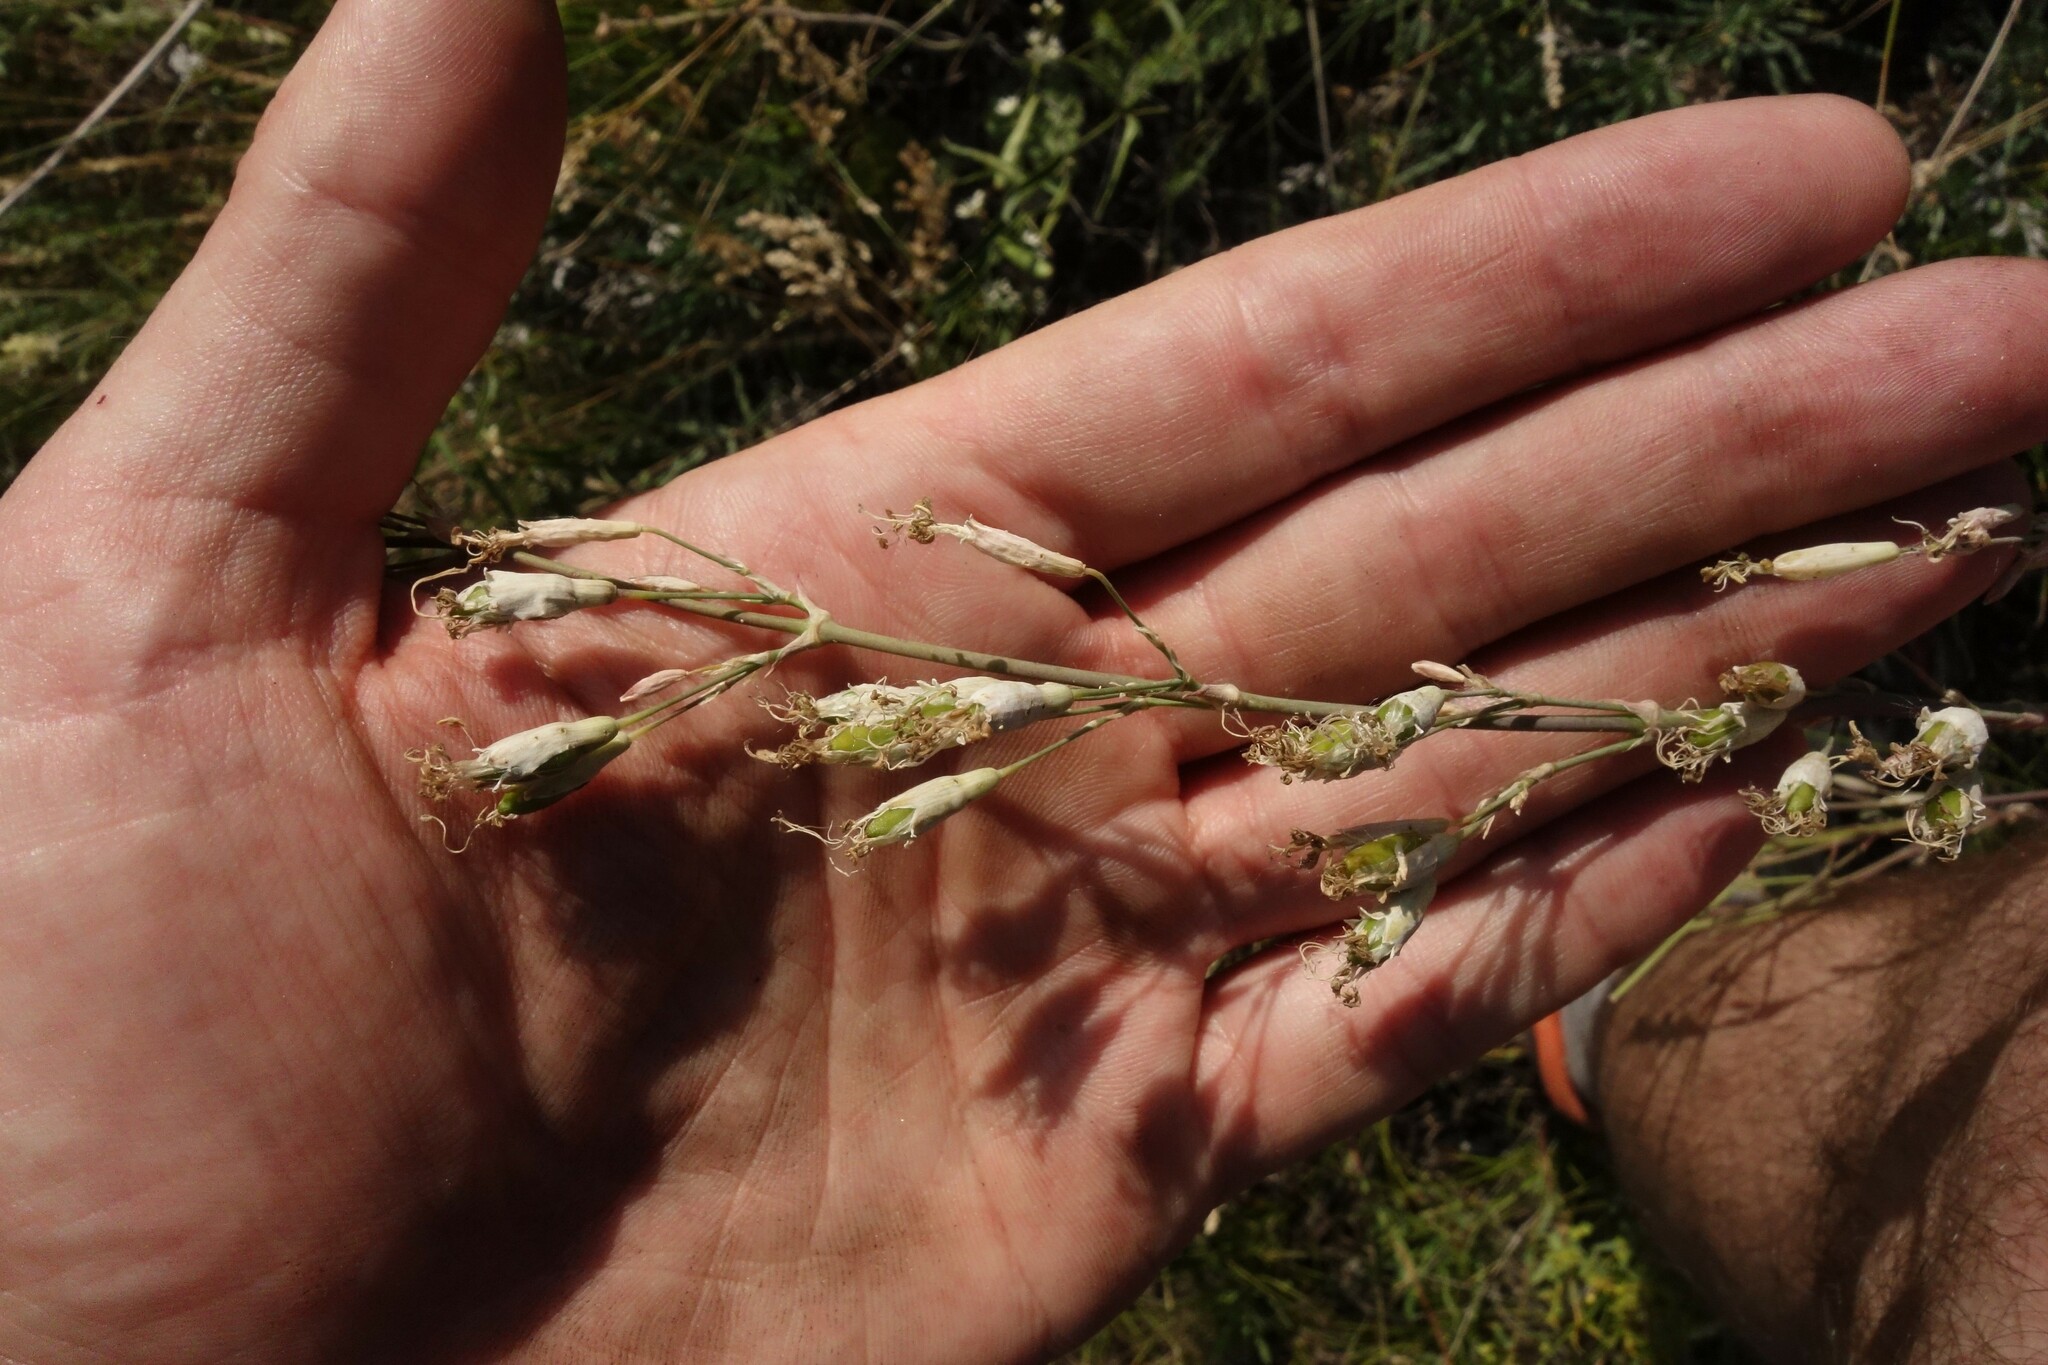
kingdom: Plantae
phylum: Tracheophyta
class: Magnoliopsida
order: Caryophyllales
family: Caryophyllaceae
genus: Silene
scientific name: Silene chlorantha
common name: Yellowgreen catchfly
